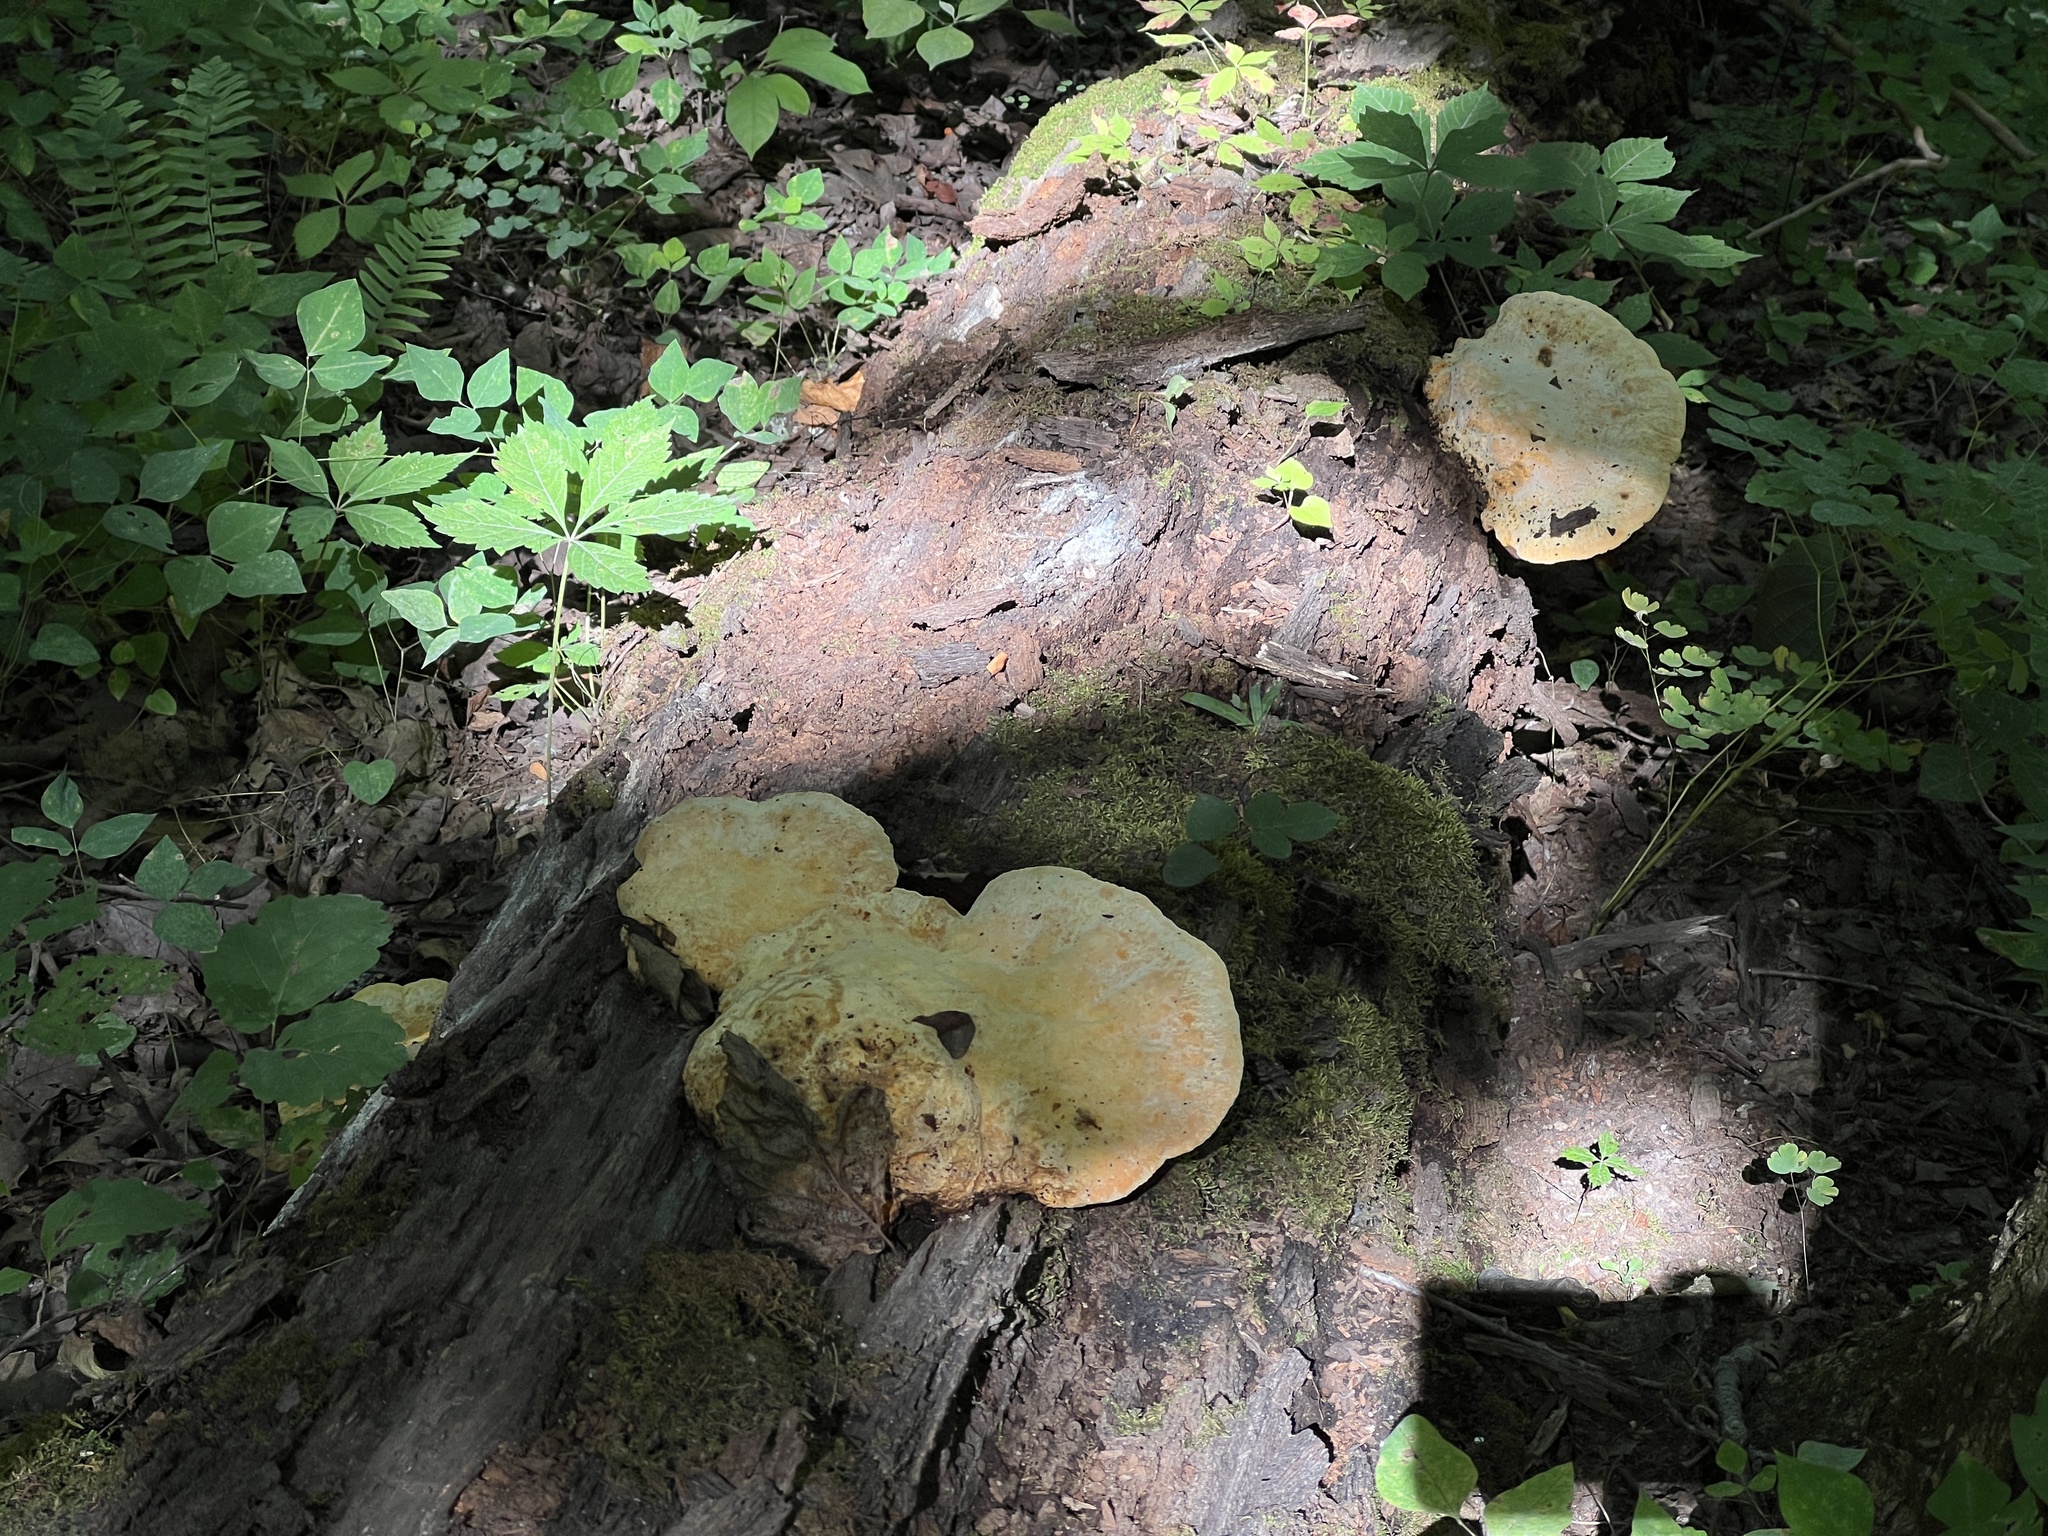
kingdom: Fungi
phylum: Basidiomycota
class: Agaricomycetes
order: Polyporales
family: Phanerochaetaceae
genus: Hapalopilus
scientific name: Hapalopilus croceus
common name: Orange polypore
